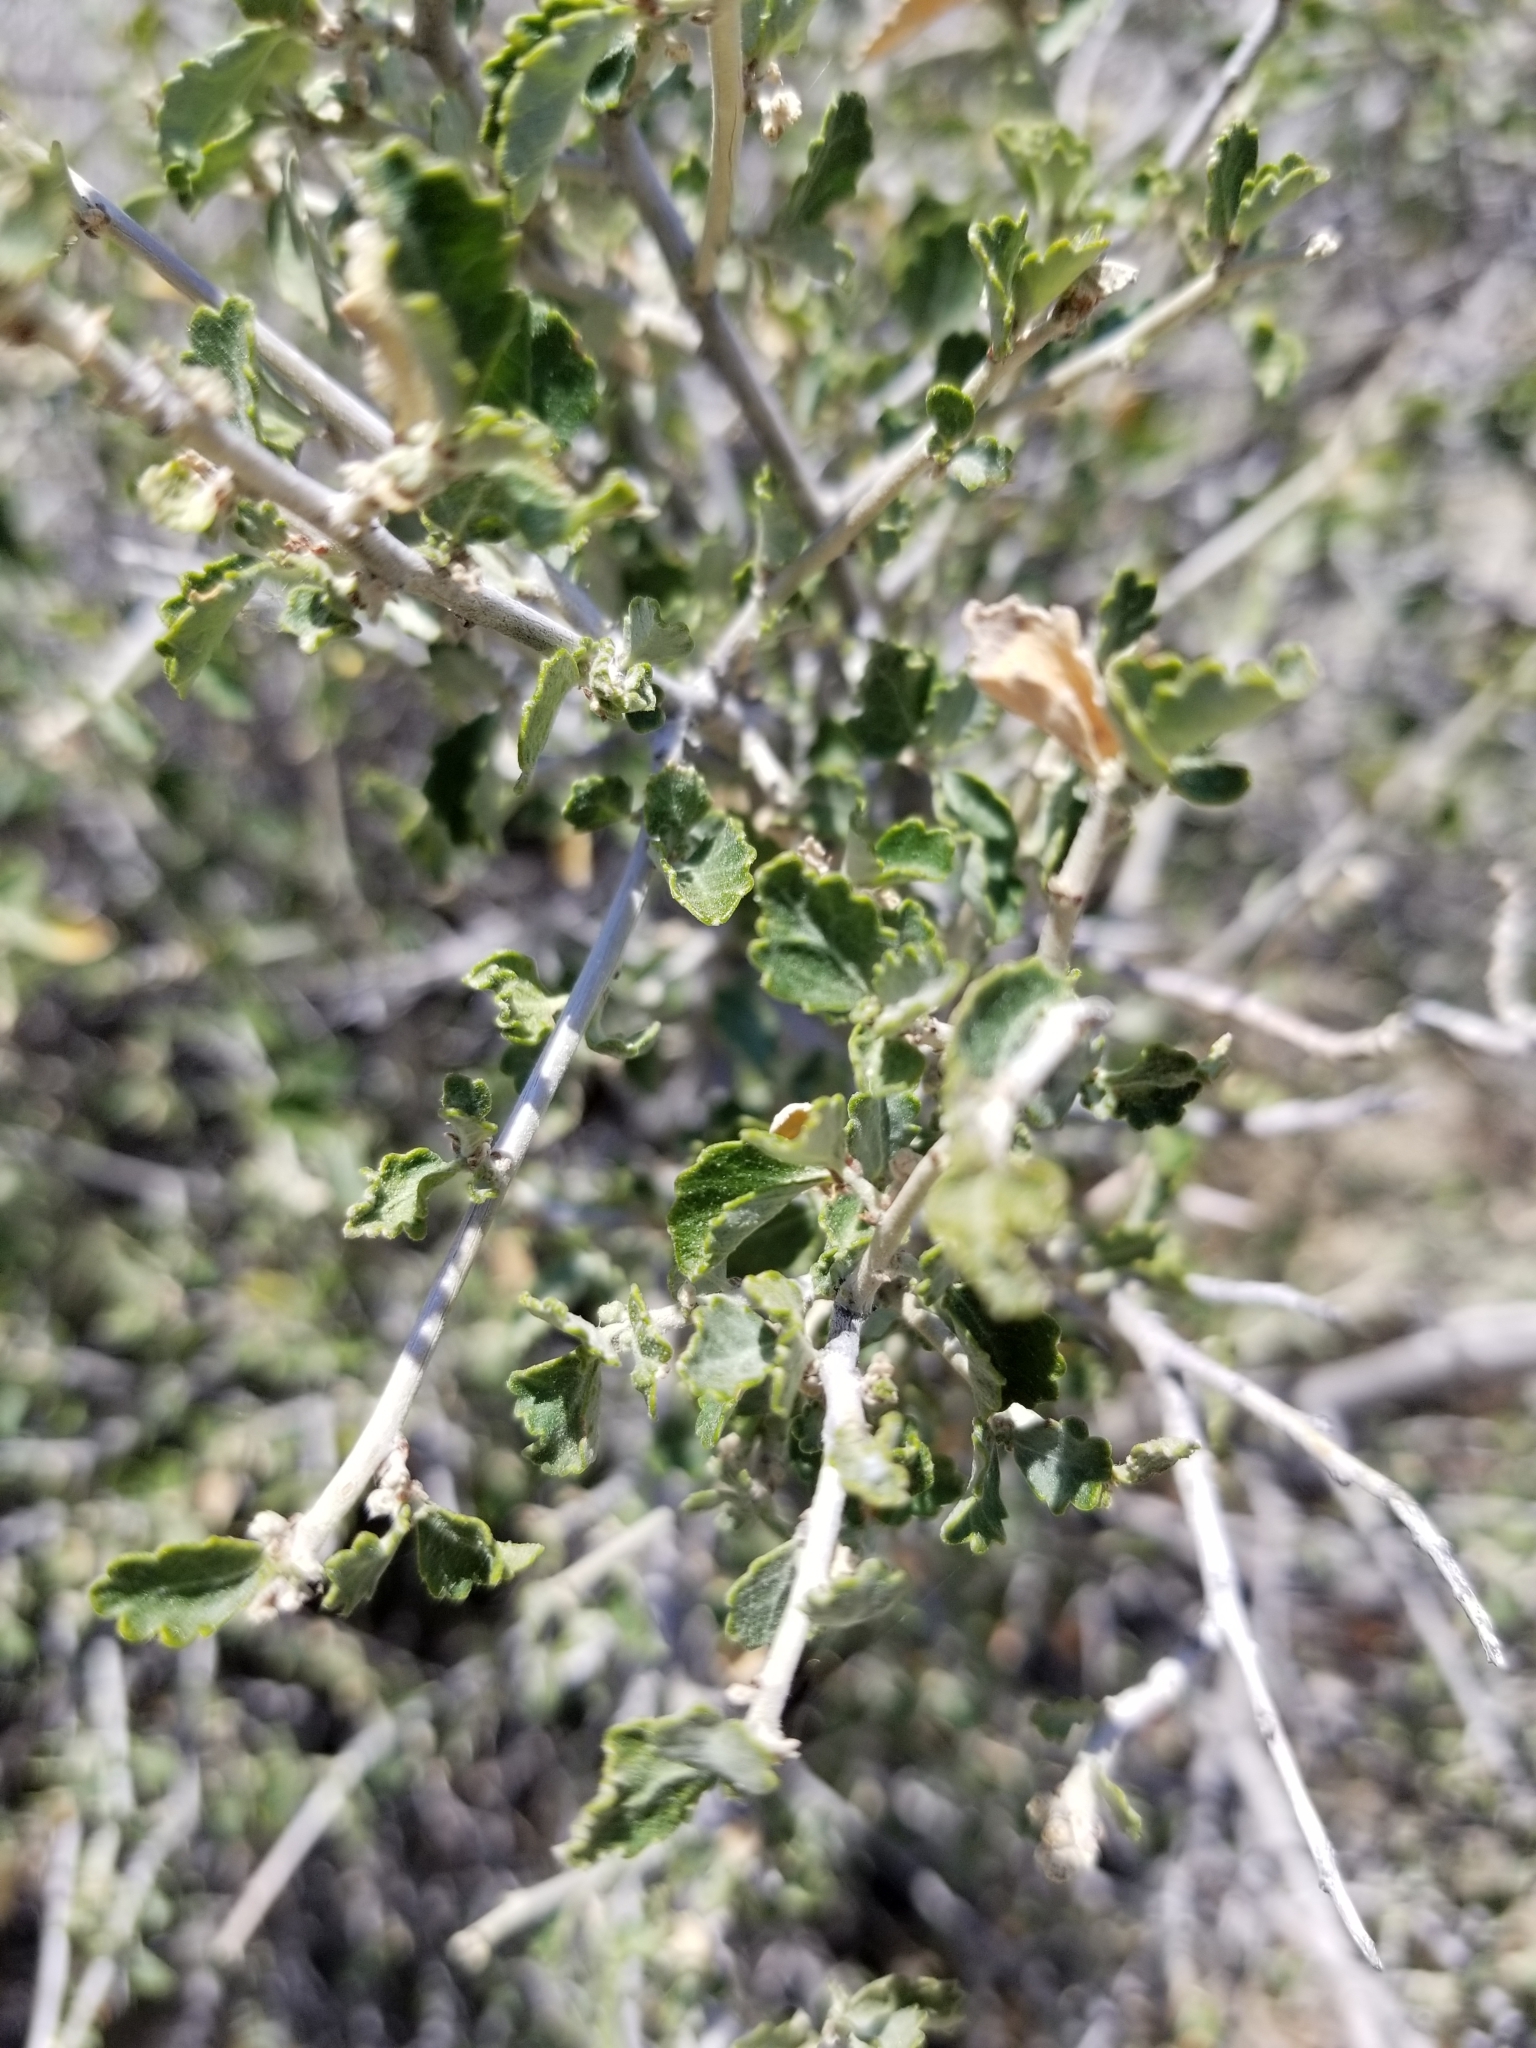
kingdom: Plantae
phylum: Tracheophyta
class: Magnoliopsida
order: Malpighiales
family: Euphorbiaceae
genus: Bernardia
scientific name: Bernardia incana
